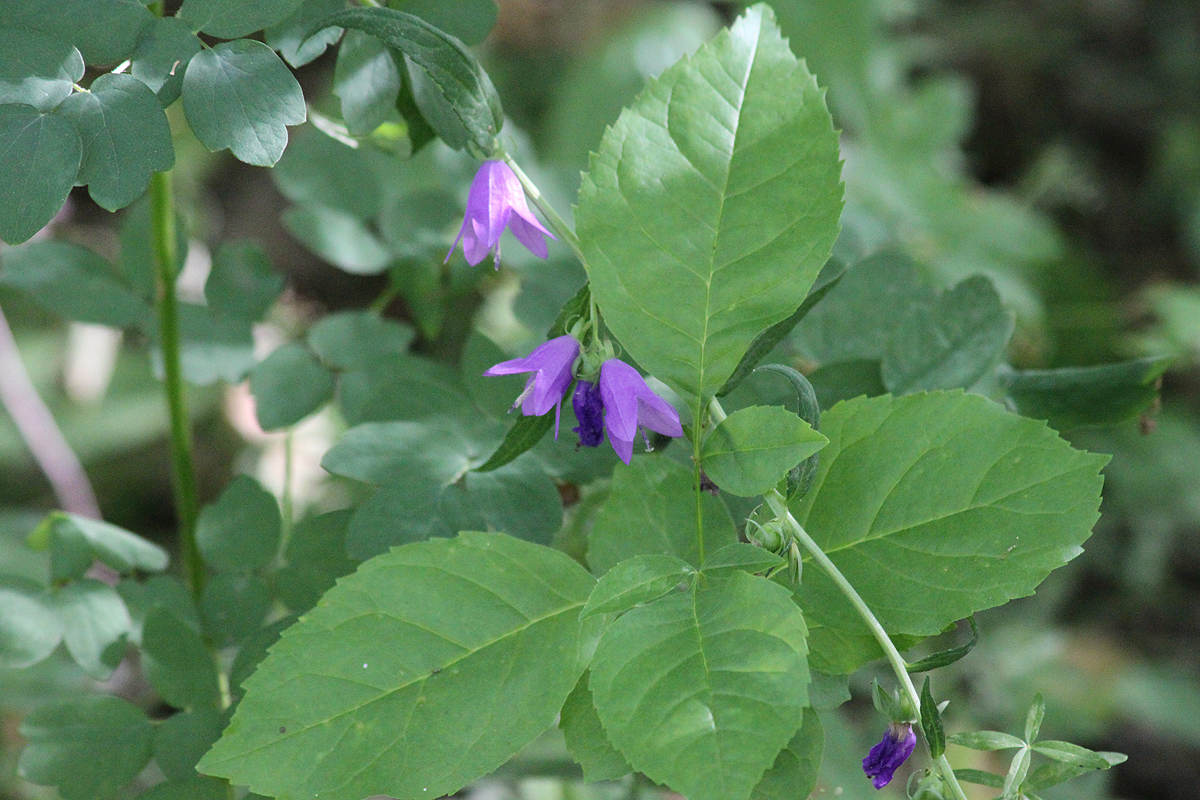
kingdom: Plantae
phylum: Tracheophyta
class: Magnoliopsida
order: Asterales
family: Campanulaceae
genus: Campanula
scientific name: Campanula rapunculoides
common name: Creeping bellflower
